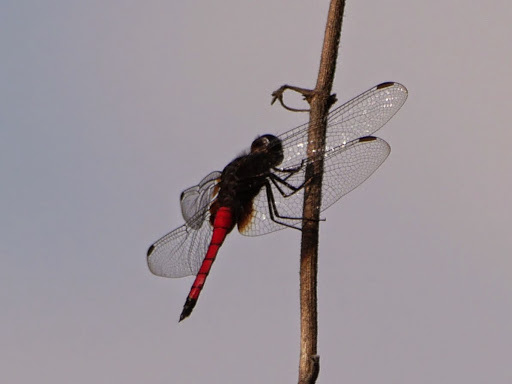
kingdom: Animalia
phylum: Arthropoda
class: Insecta
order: Odonata
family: Libellulidae
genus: Hadrothemis
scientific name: Hadrothemis defecta
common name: Scarlet jungleskimmer
